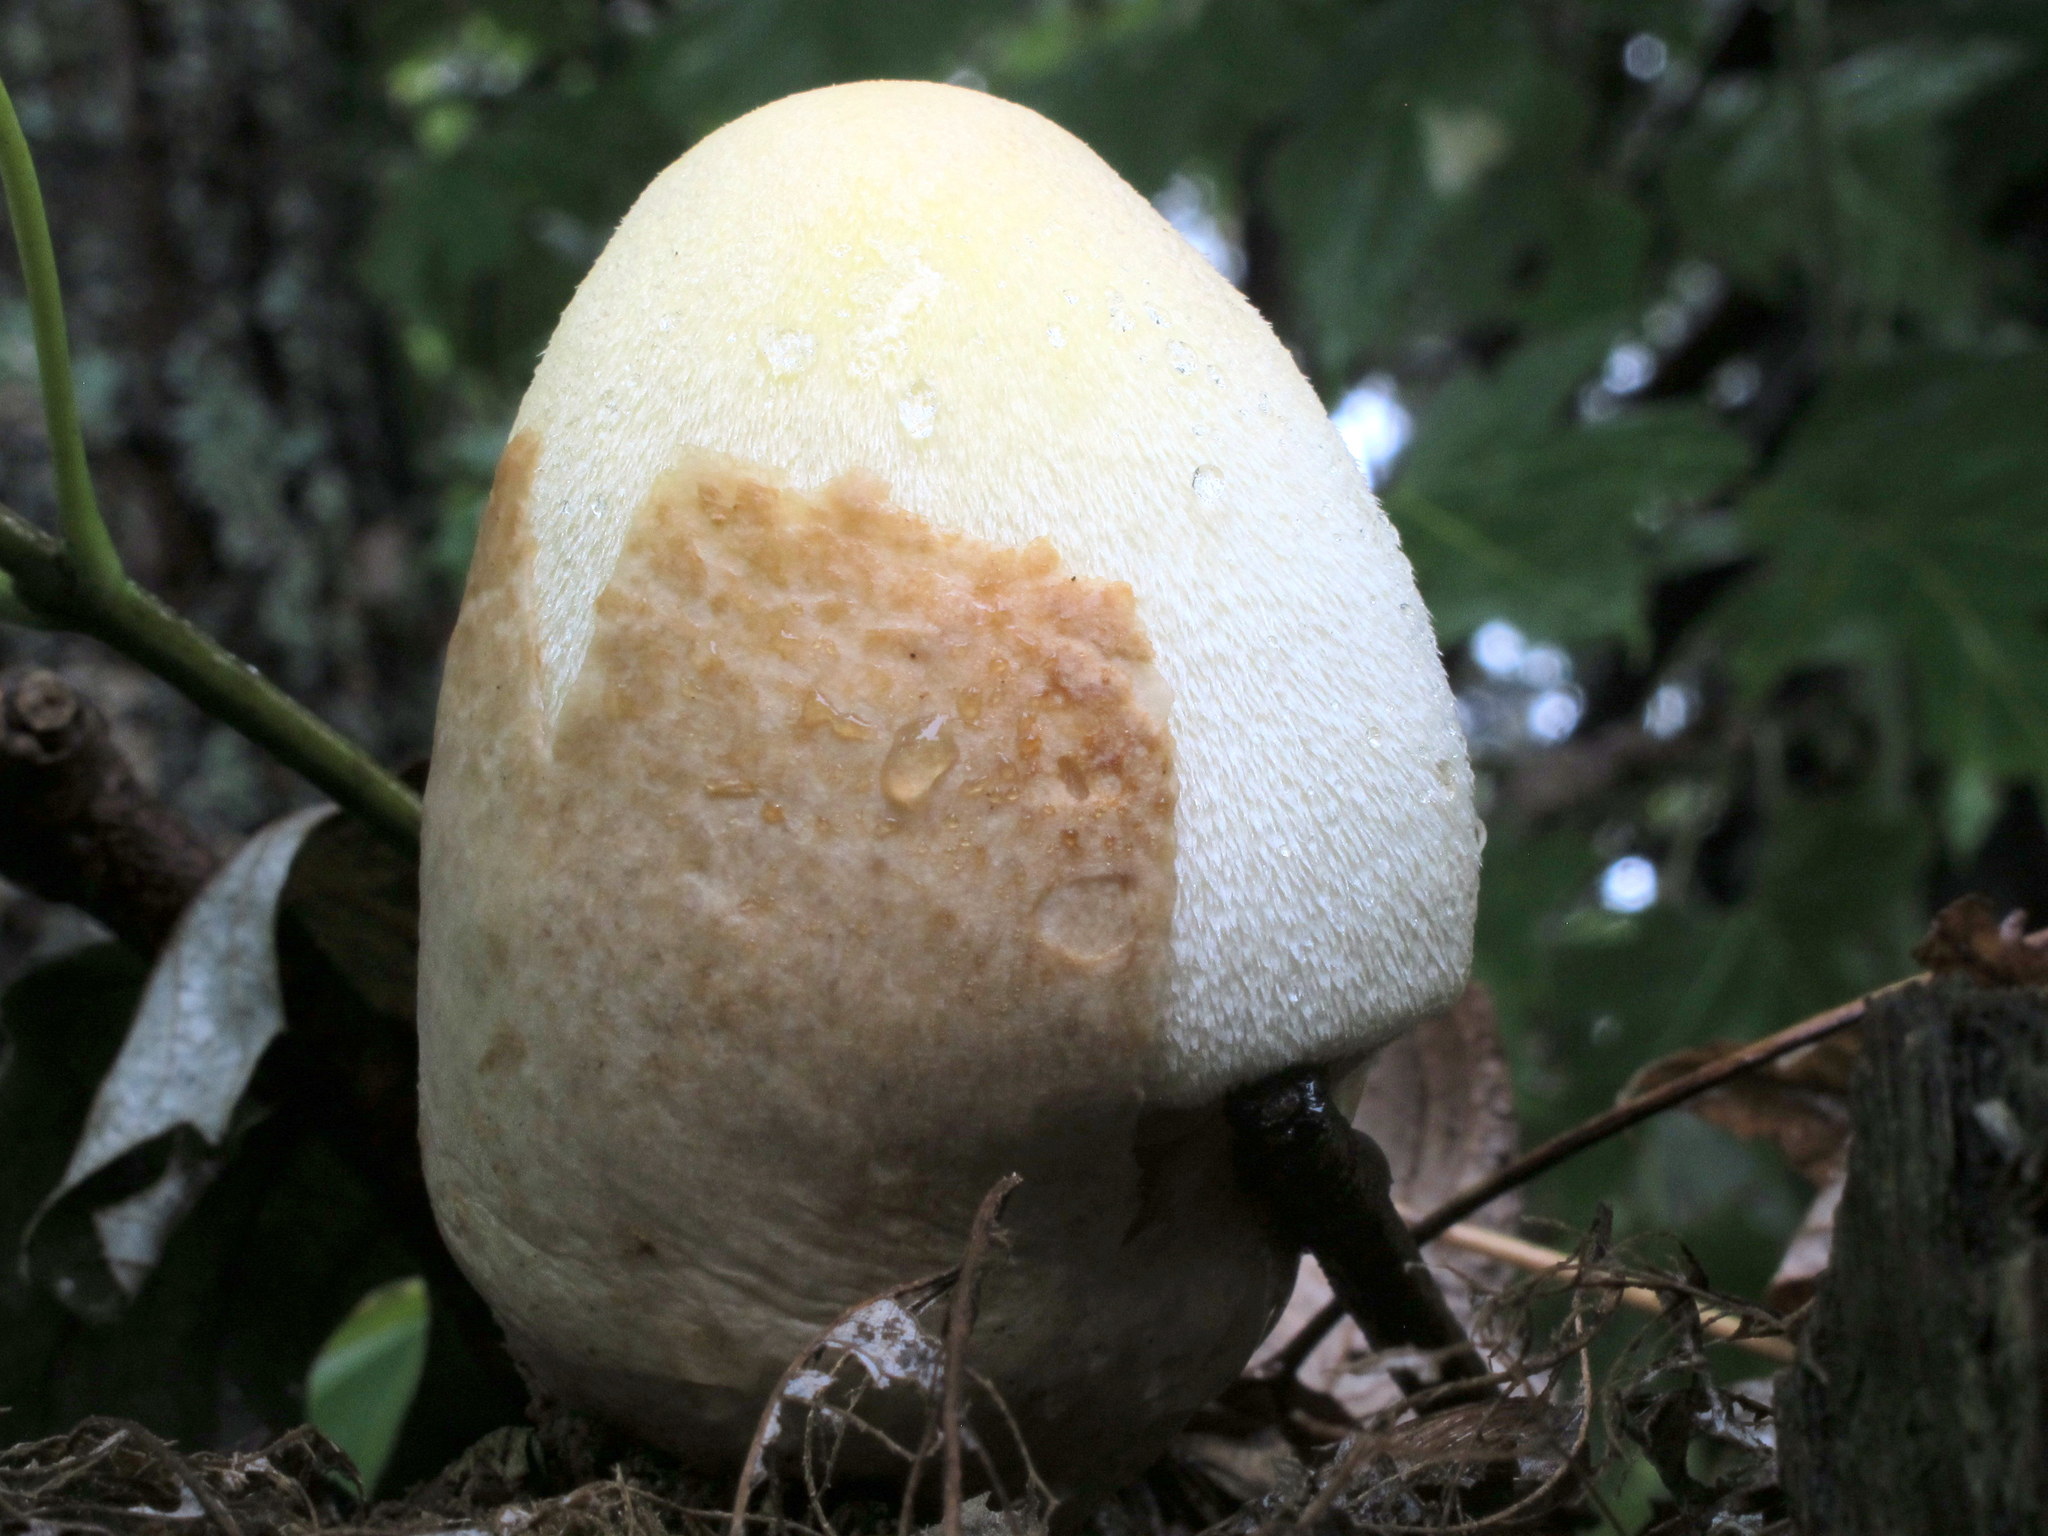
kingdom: Fungi
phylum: Basidiomycota
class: Agaricomycetes
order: Agaricales
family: Pluteaceae
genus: Volvariella
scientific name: Volvariella bombycina
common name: Silky rosegill
